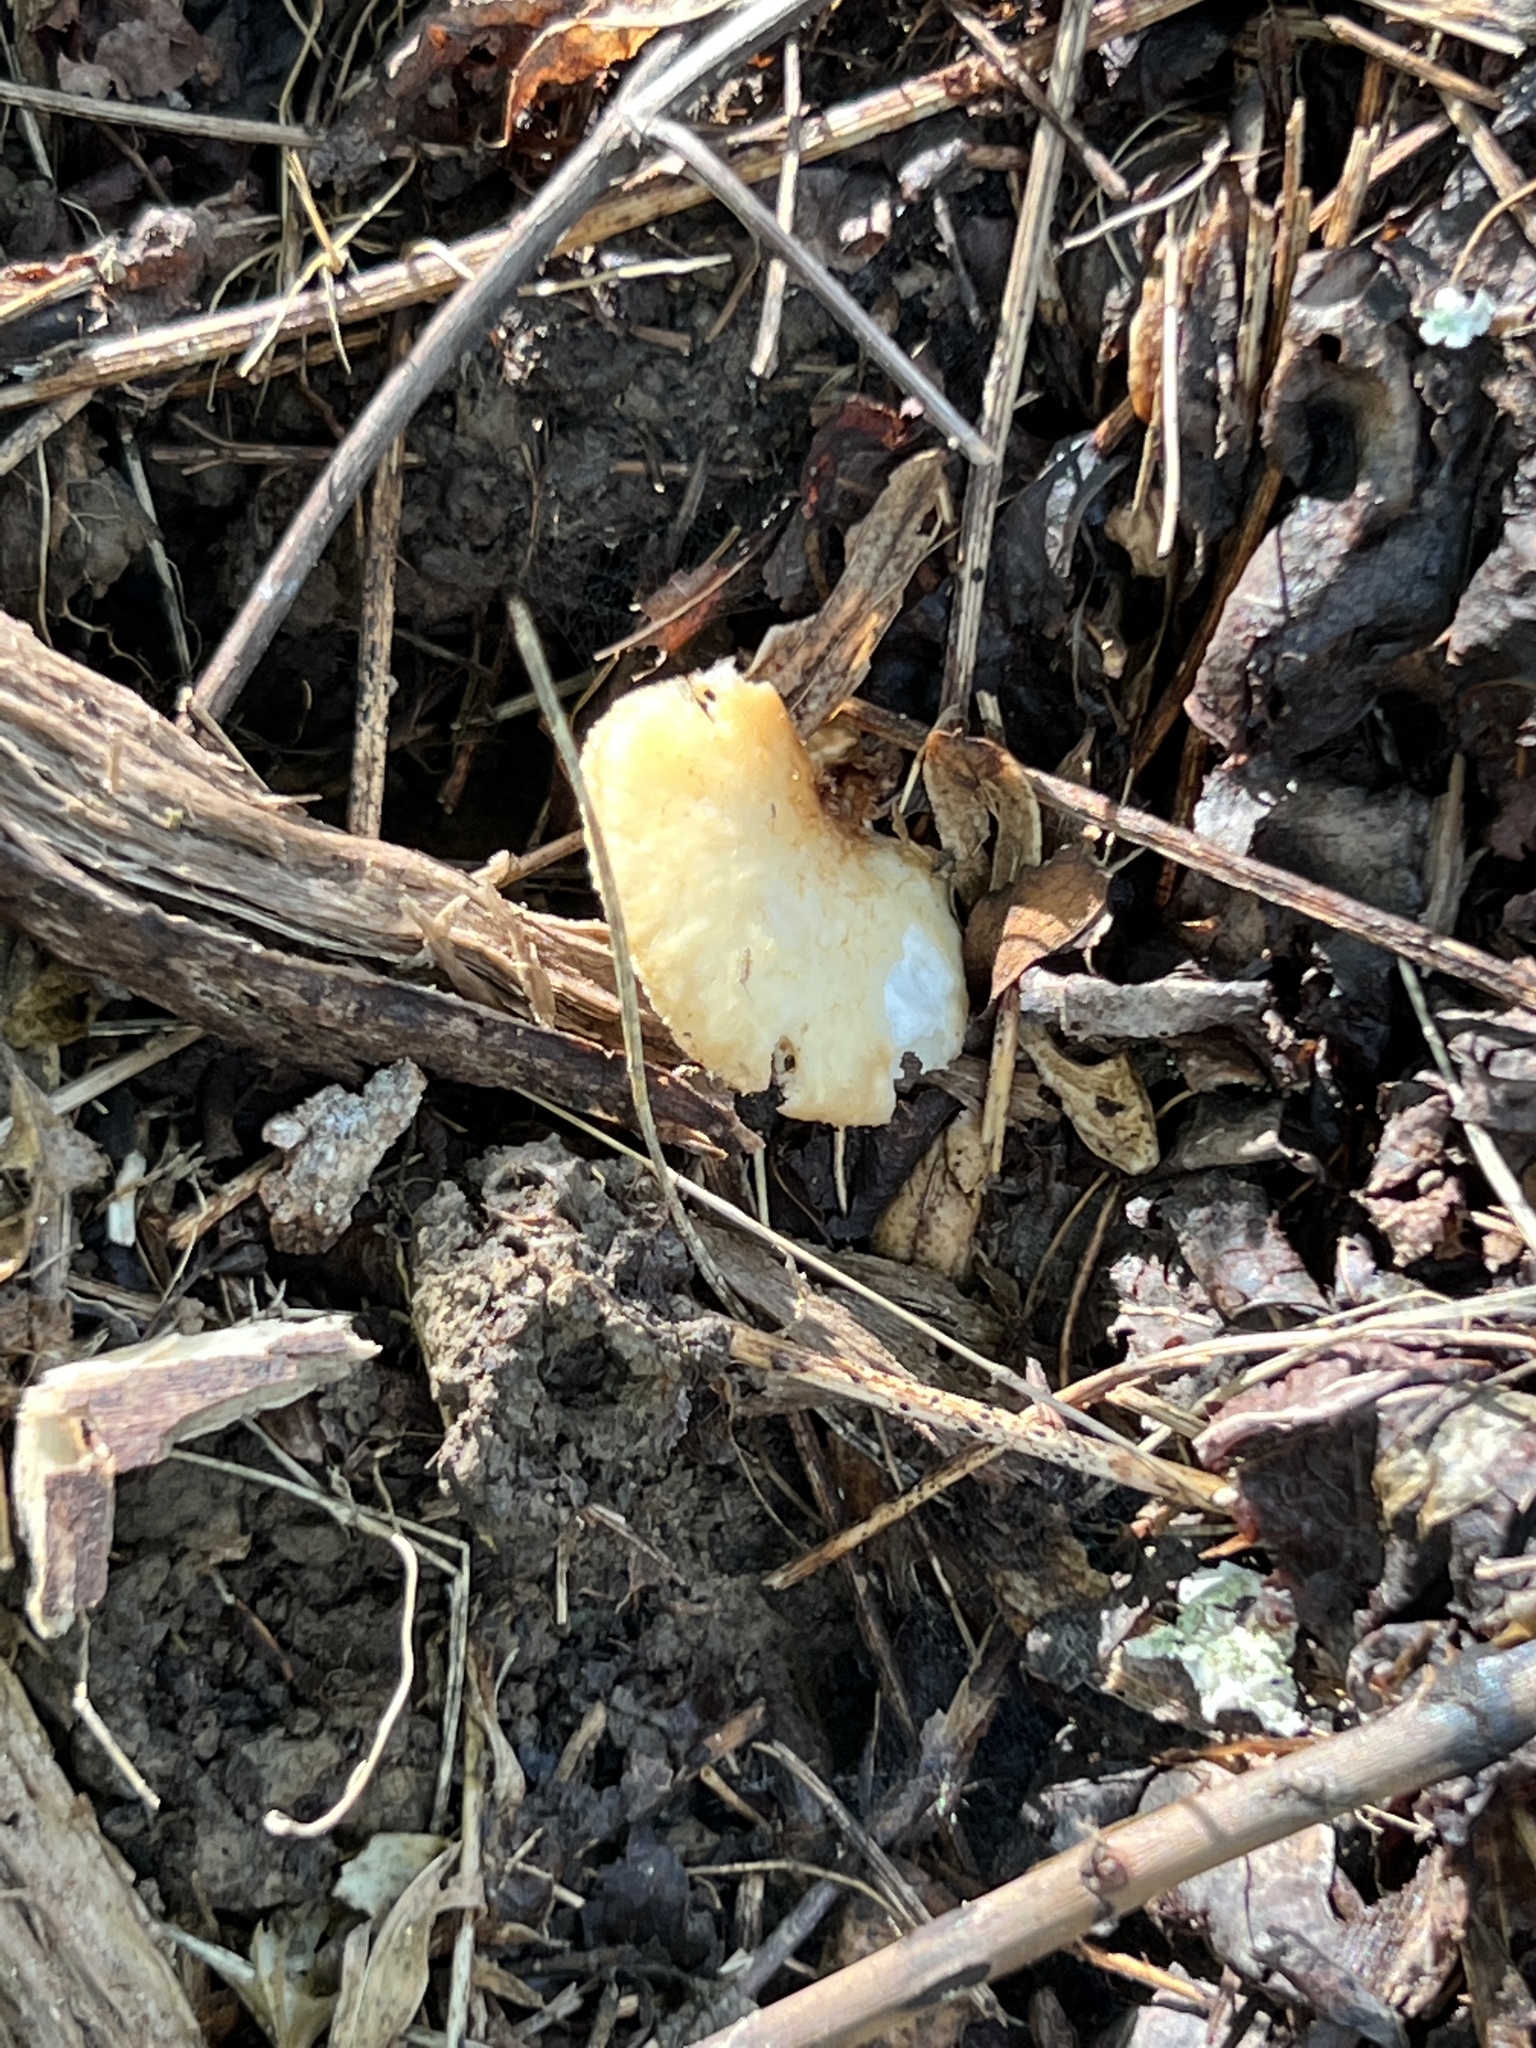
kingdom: Fungi
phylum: Basidiomycota
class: Agaricomycetes
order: Polyporales
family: Polyporaceae
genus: Neofavolus
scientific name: Neofavolus alveolaris
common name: Hexagonal-pored polypore
